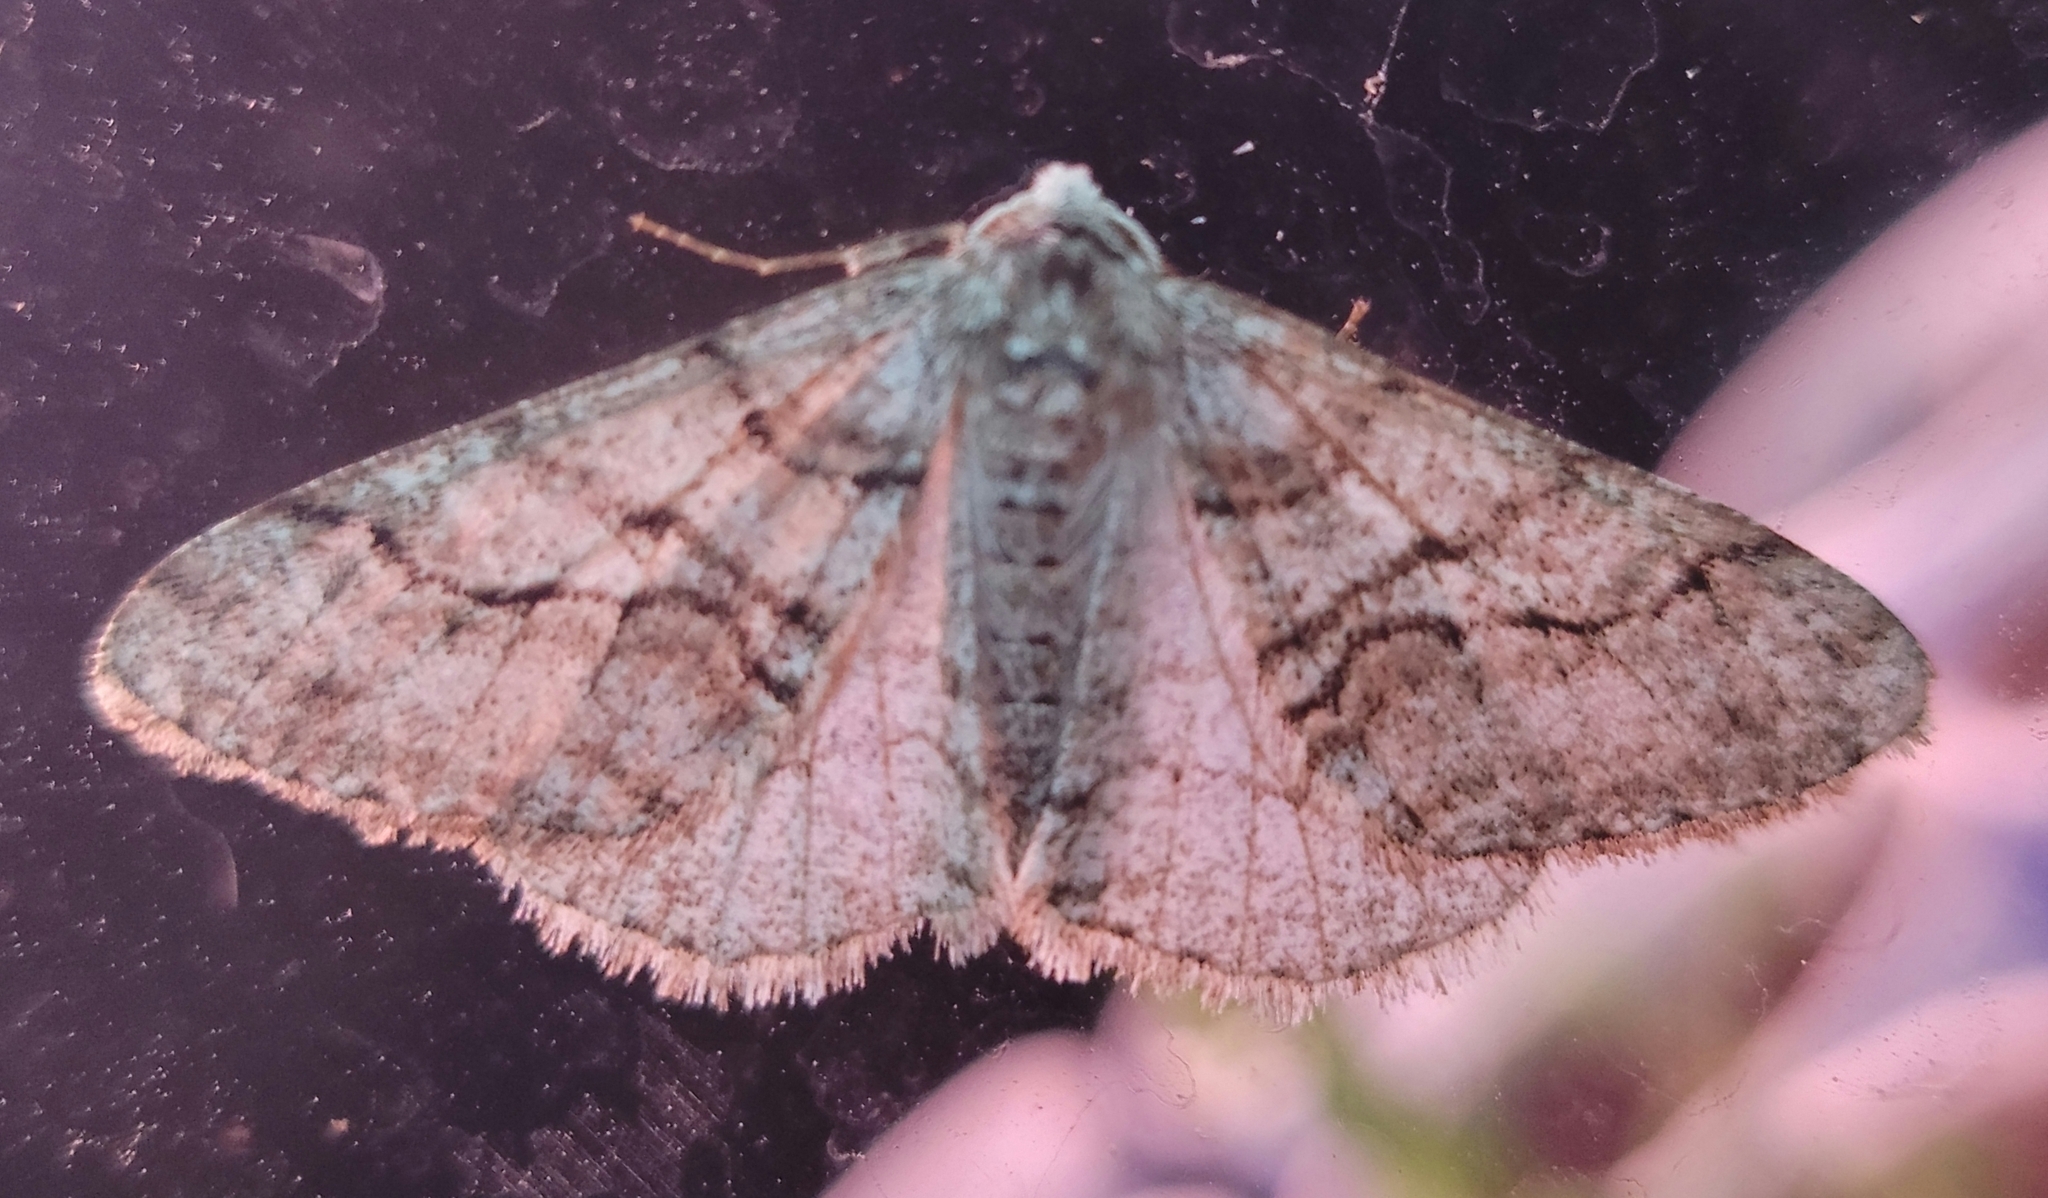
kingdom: Animalia
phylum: Arthropoda
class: Insecta
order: Lepidoptera
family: Geometridae
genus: Phigalia
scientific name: Phigalia titea
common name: Spiny looper
